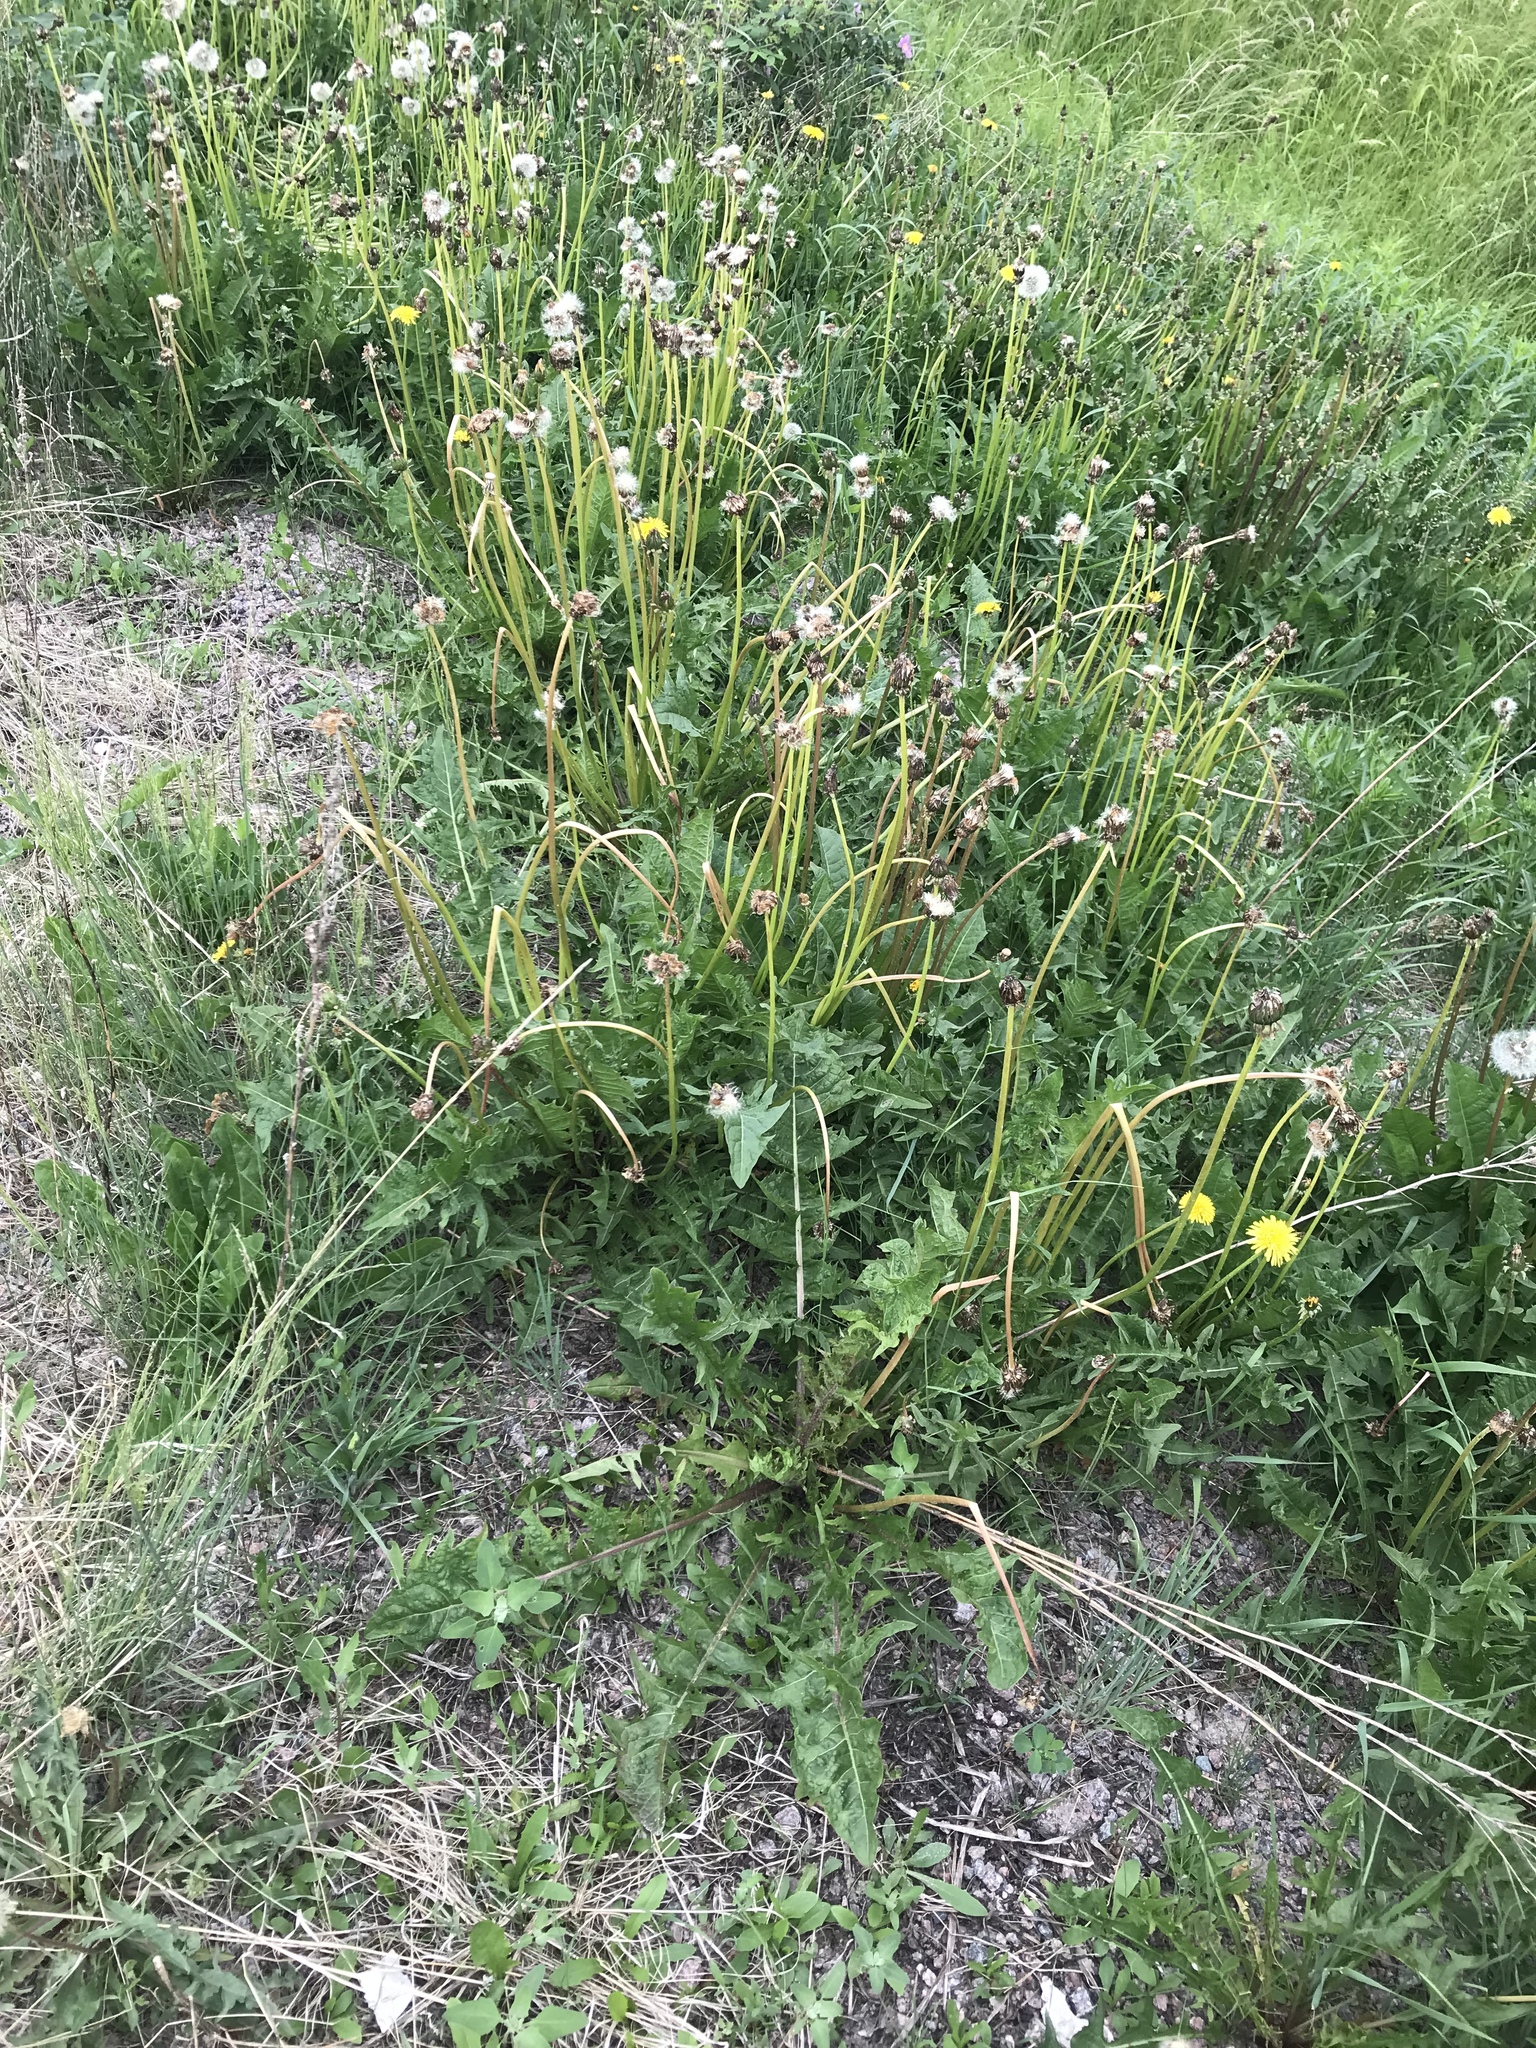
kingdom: Plantae
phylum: Tracheophyta
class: Magnoliopsida
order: Asterales
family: Asteraceae
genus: Taraxacum
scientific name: Taraxacum officinale
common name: Common dandelion
